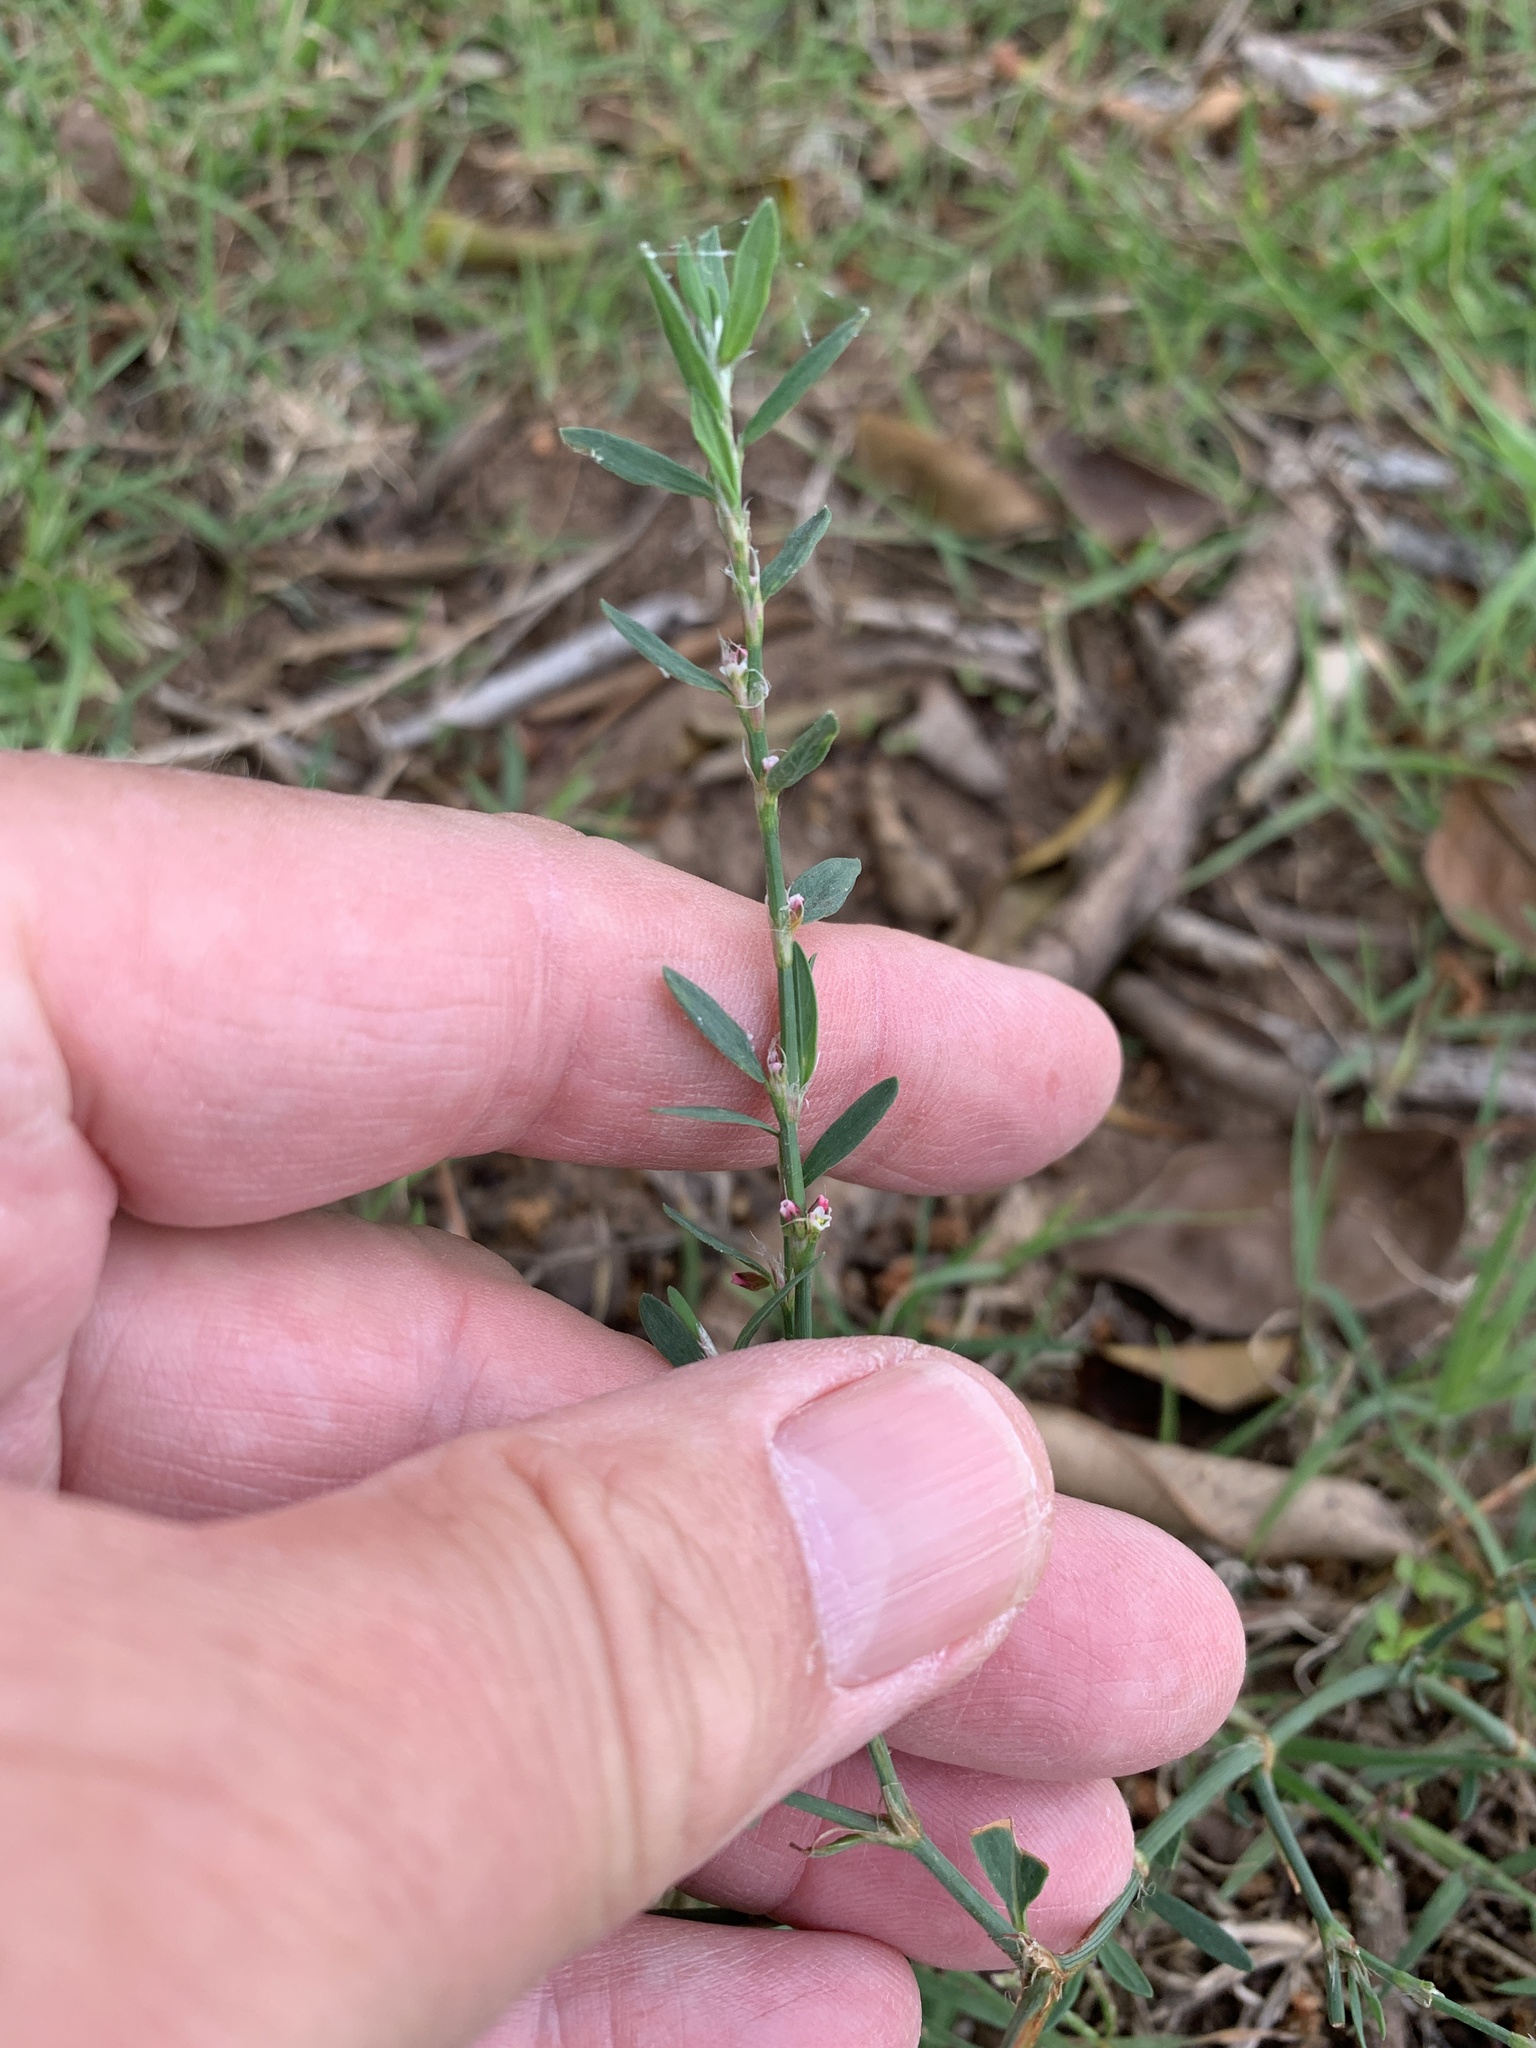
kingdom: Plantae
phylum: Tracheophyta
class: Magnoliopsida
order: Caryophyllales
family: Polygonaceae
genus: Polygonum
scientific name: Polygonum aviculare
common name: Prostrate knotweed
